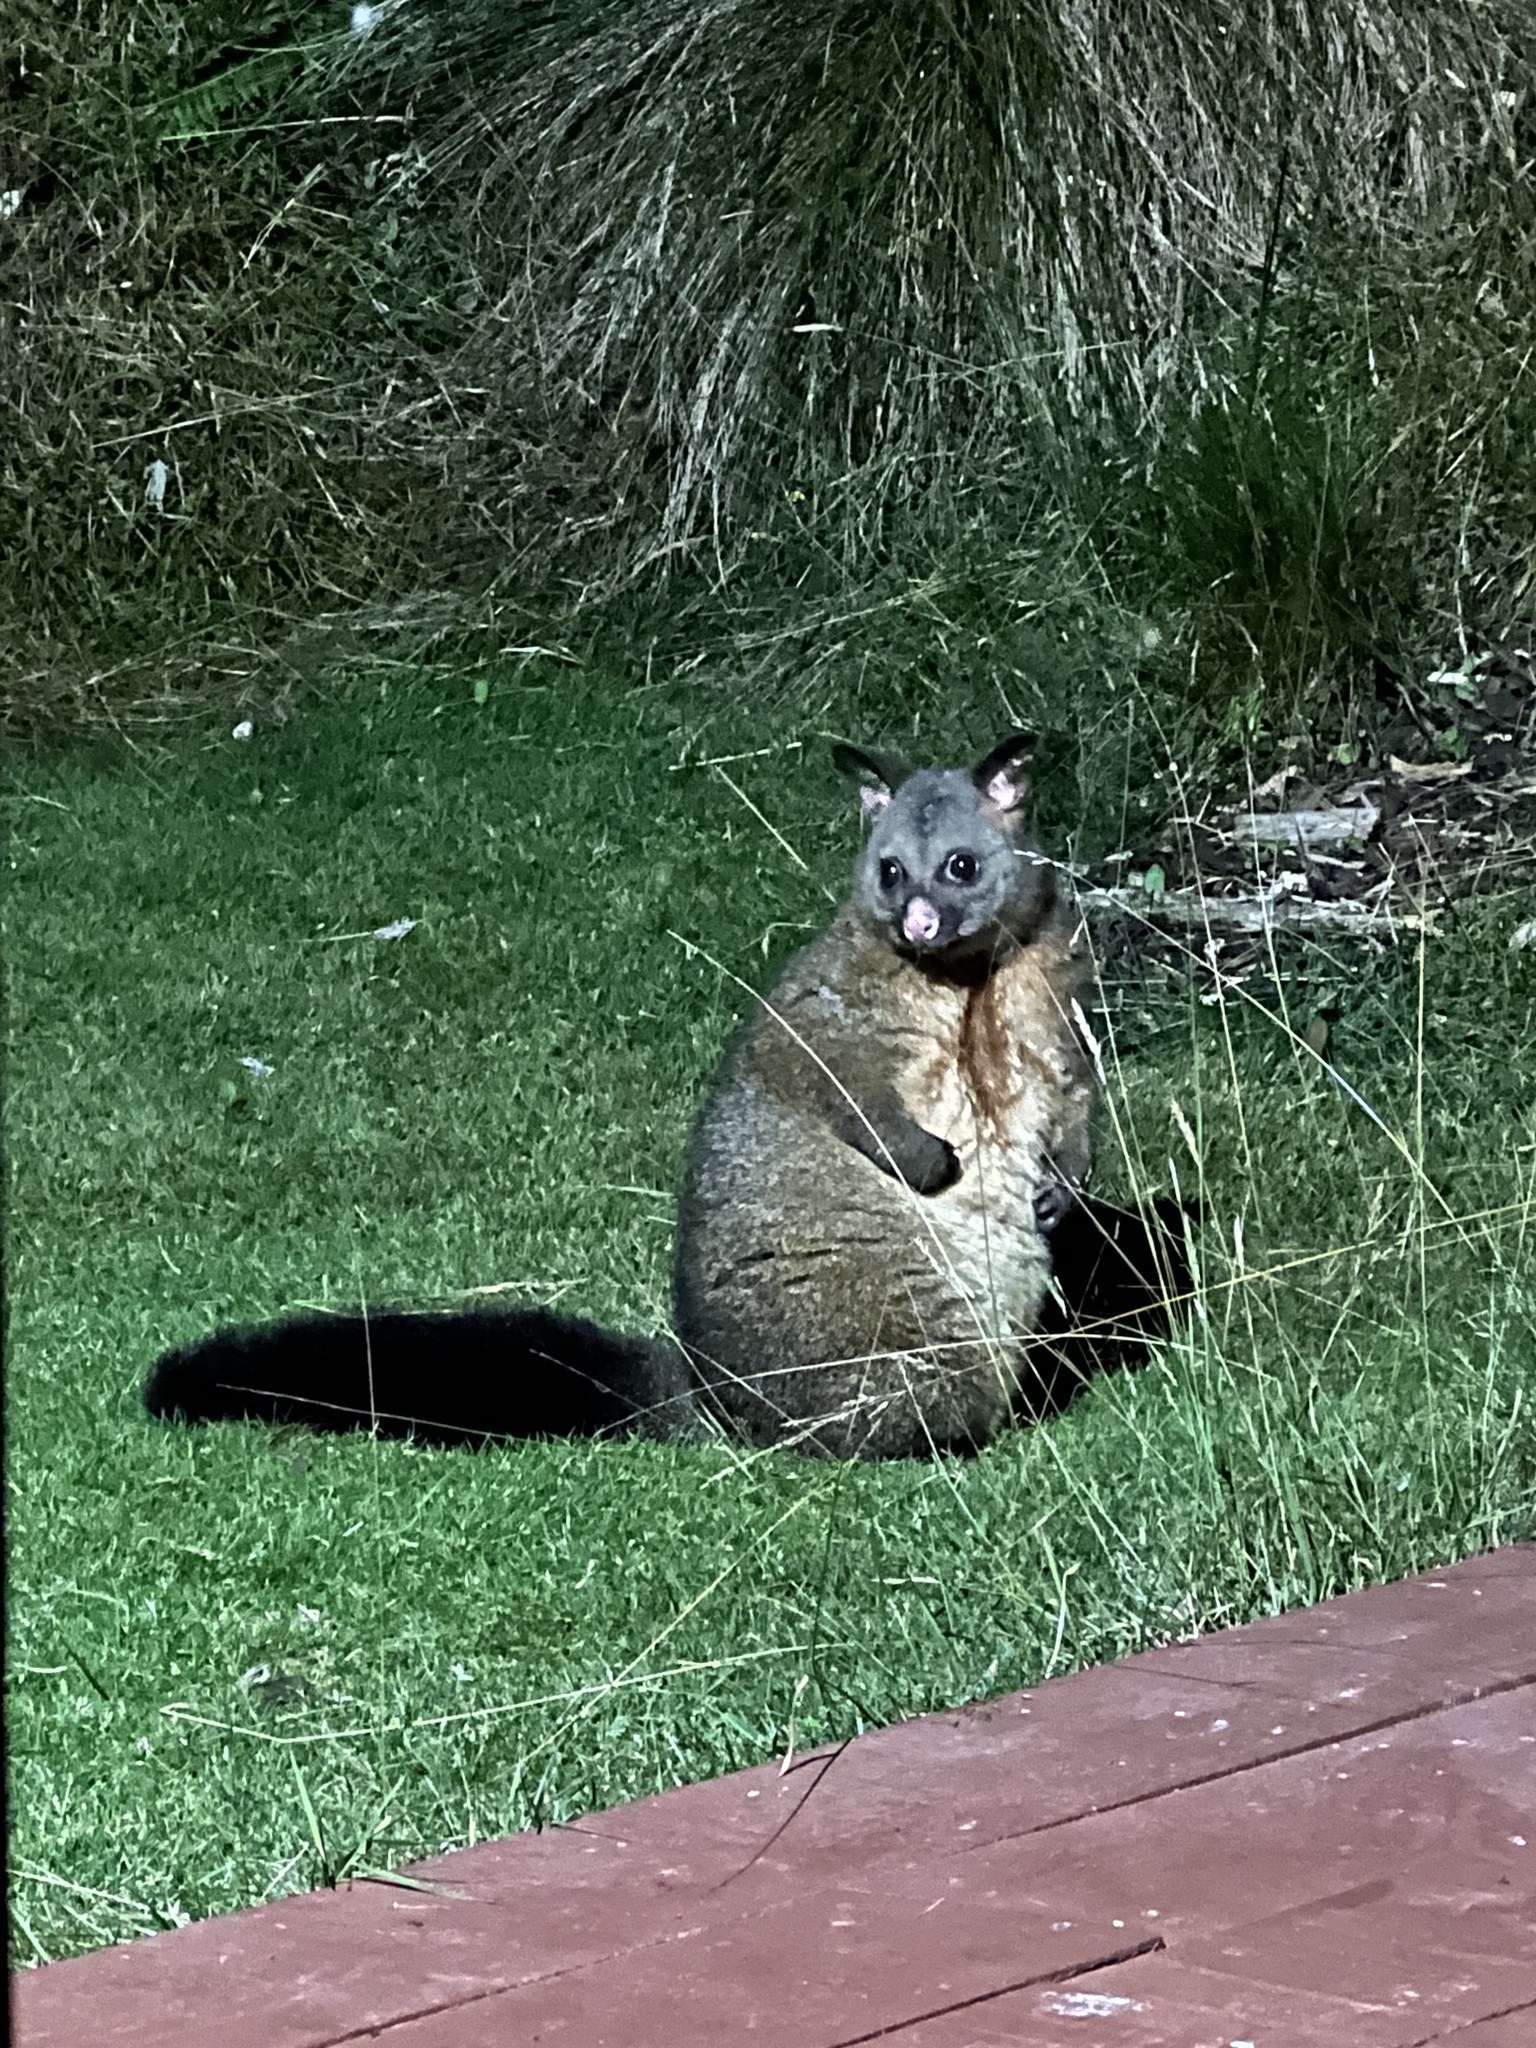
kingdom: Animalia
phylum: Chordata
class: Mammalia
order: Diprotodontia
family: Phalangeridae
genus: Trichosurus
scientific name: Trichosurus vulpecula
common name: Common brushtail
